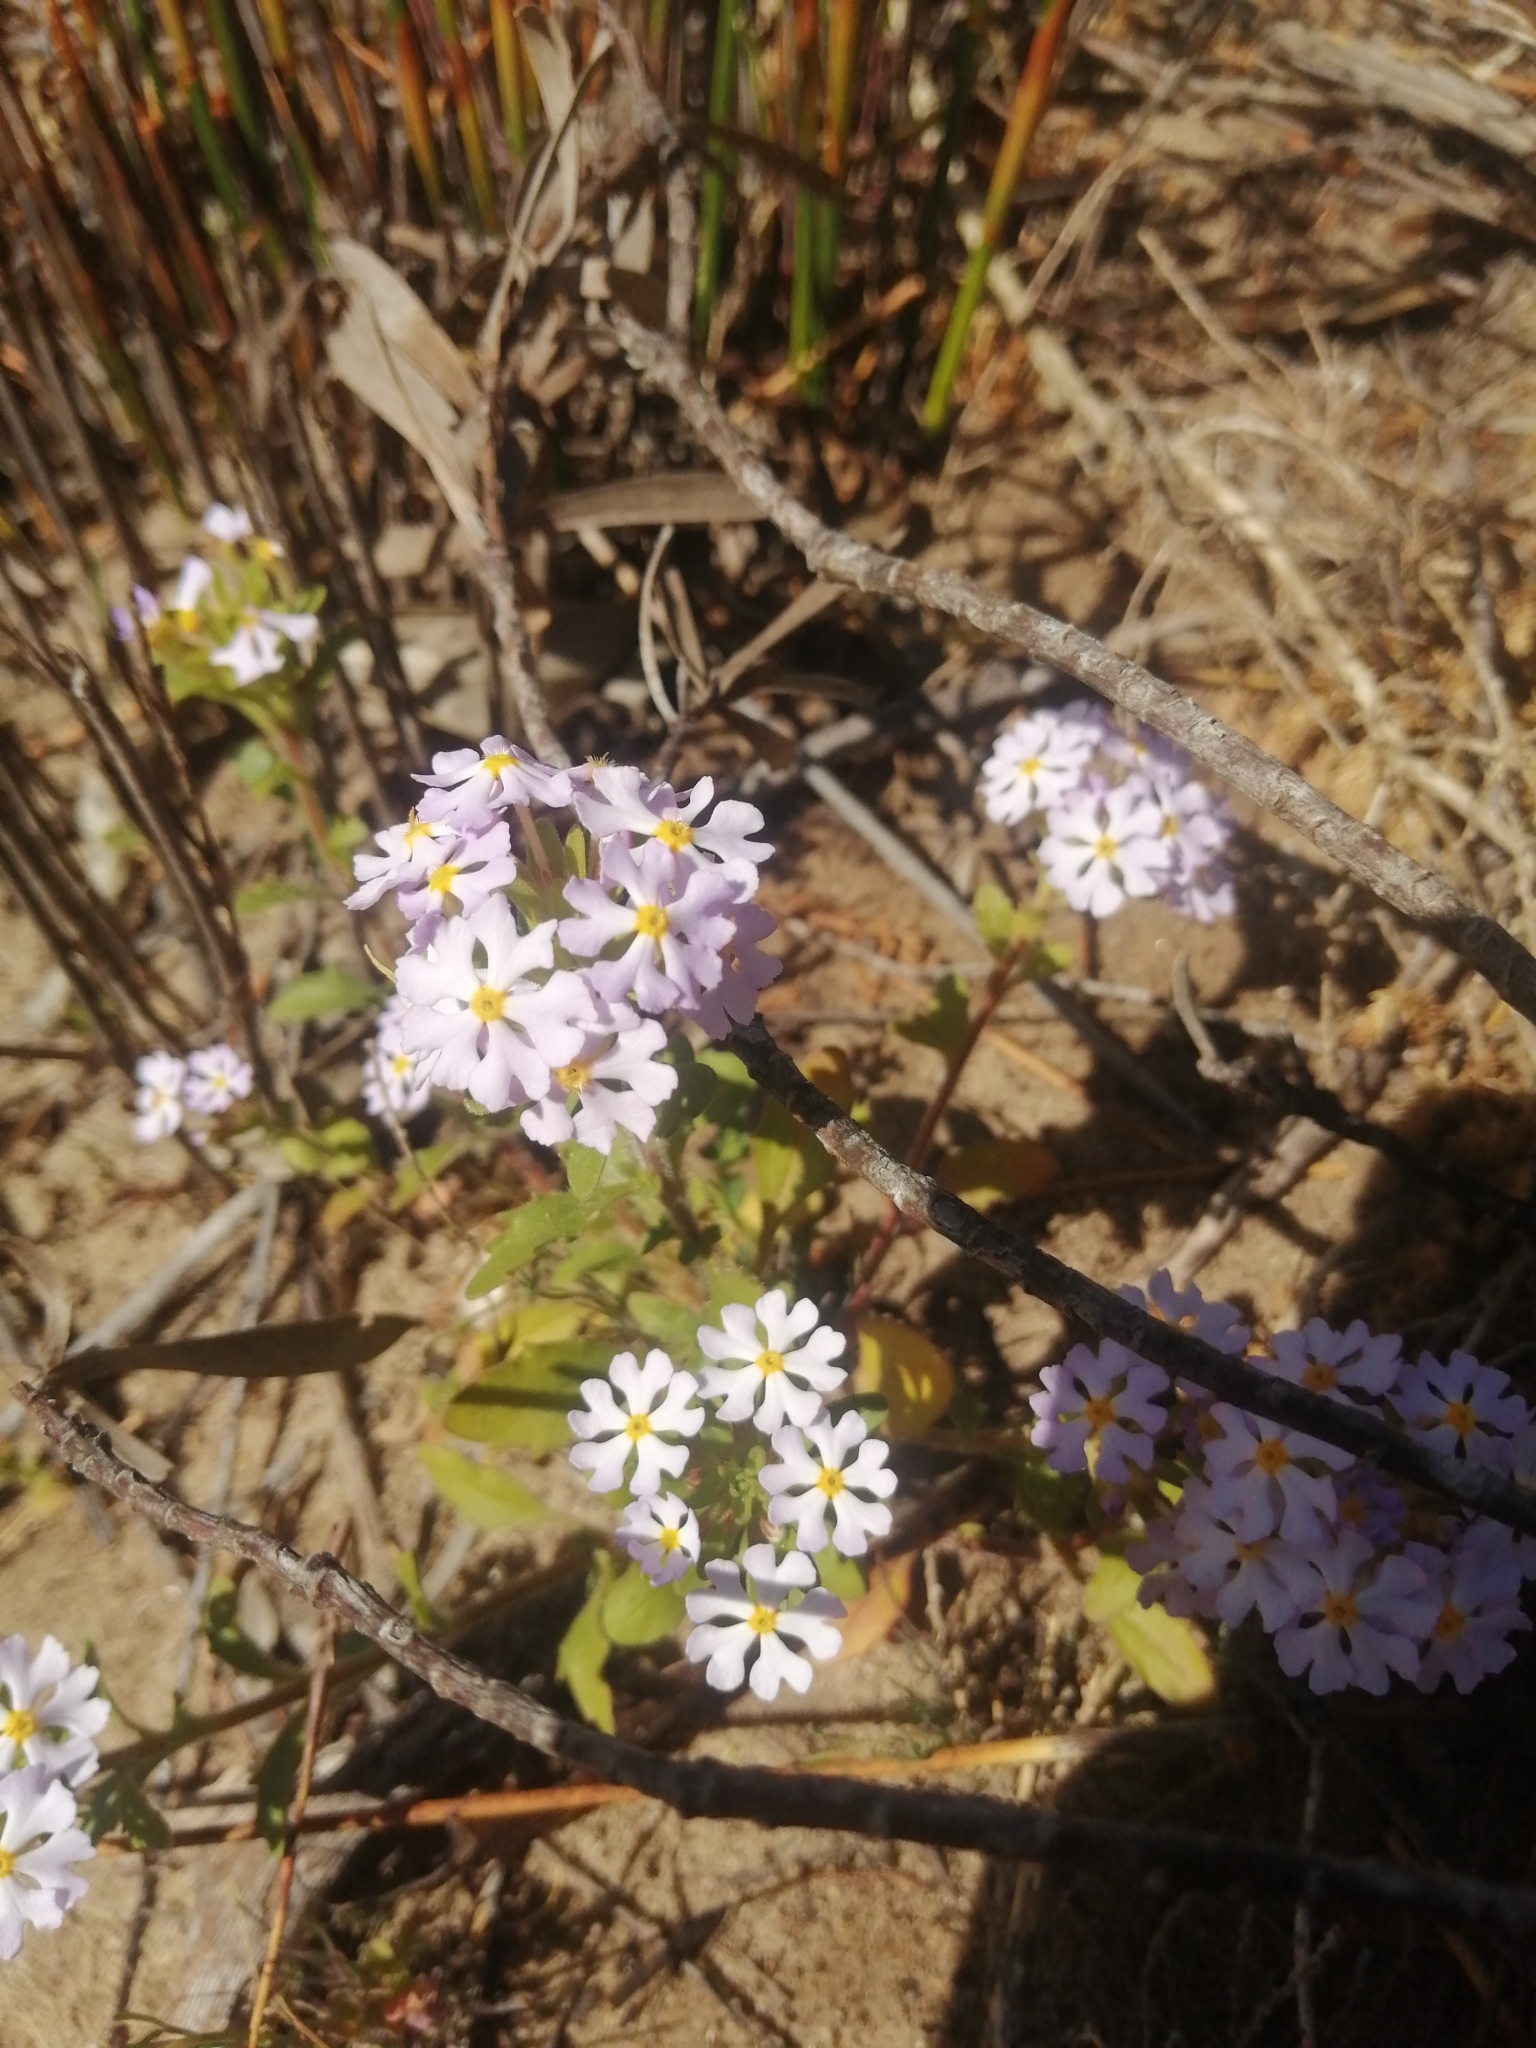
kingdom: Plantae
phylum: Tracheophyta
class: Magnoliopsida
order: Lamiales
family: Scrophulariaceae
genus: Zaluzianskya
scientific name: Zaluzianskya villosa
